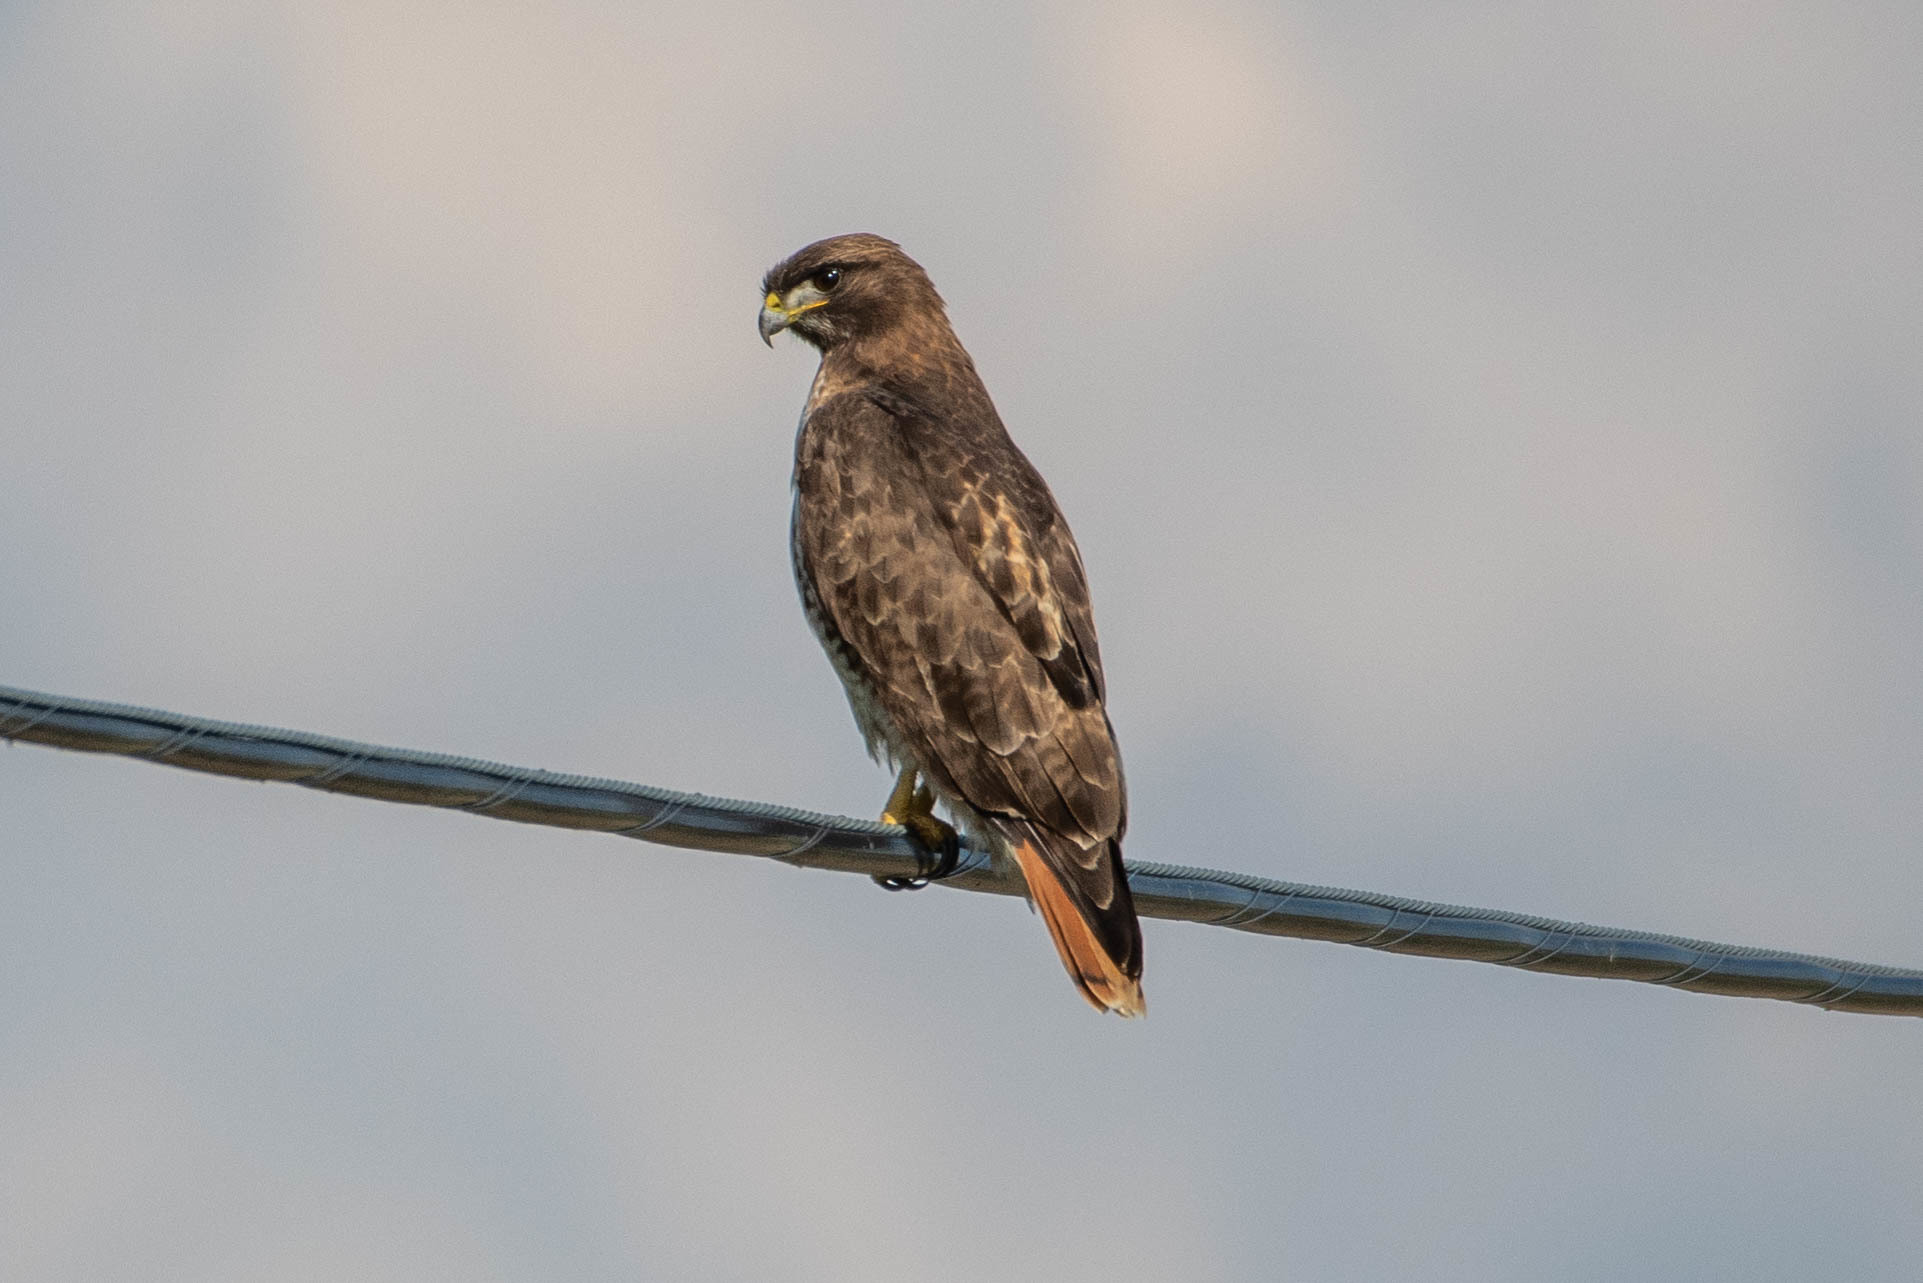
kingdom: Animalia
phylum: Chordata
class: Aves
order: Accipitriformes
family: Accipitridae
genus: Buteo
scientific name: Buteo jamaicensis
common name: Red-tailed hawk
